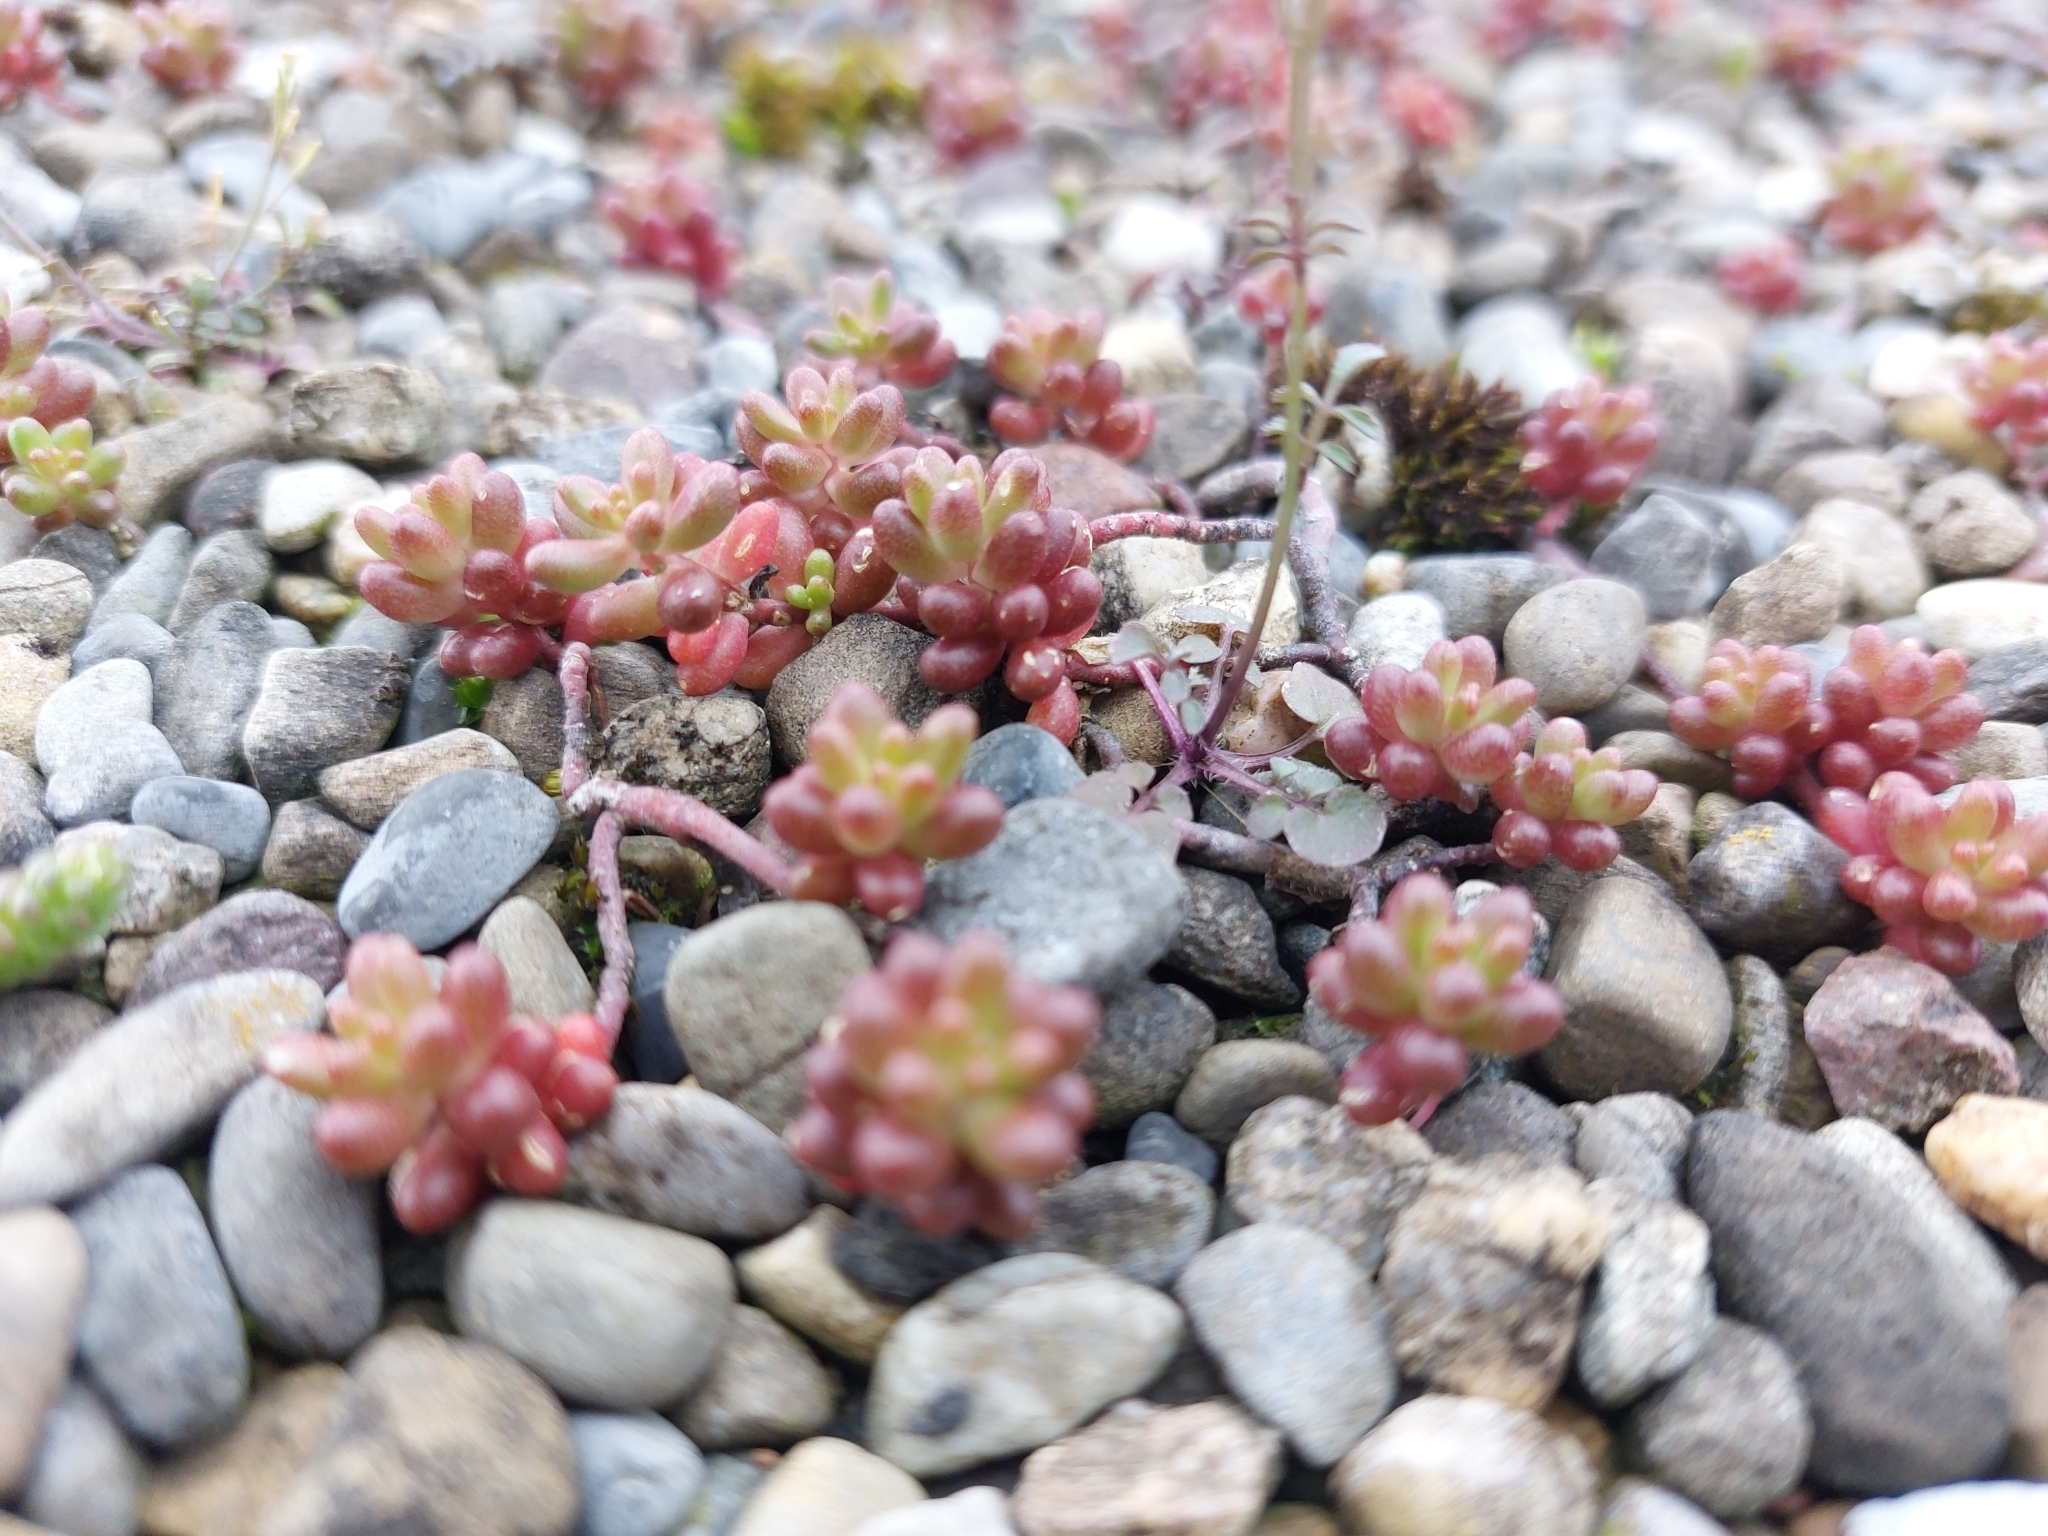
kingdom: Plantae
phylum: Tracheophyta
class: Magnoliopsida
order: Saxifragales
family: Crassulaceae
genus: Sedum
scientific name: Sedum album
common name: White stonecrop
